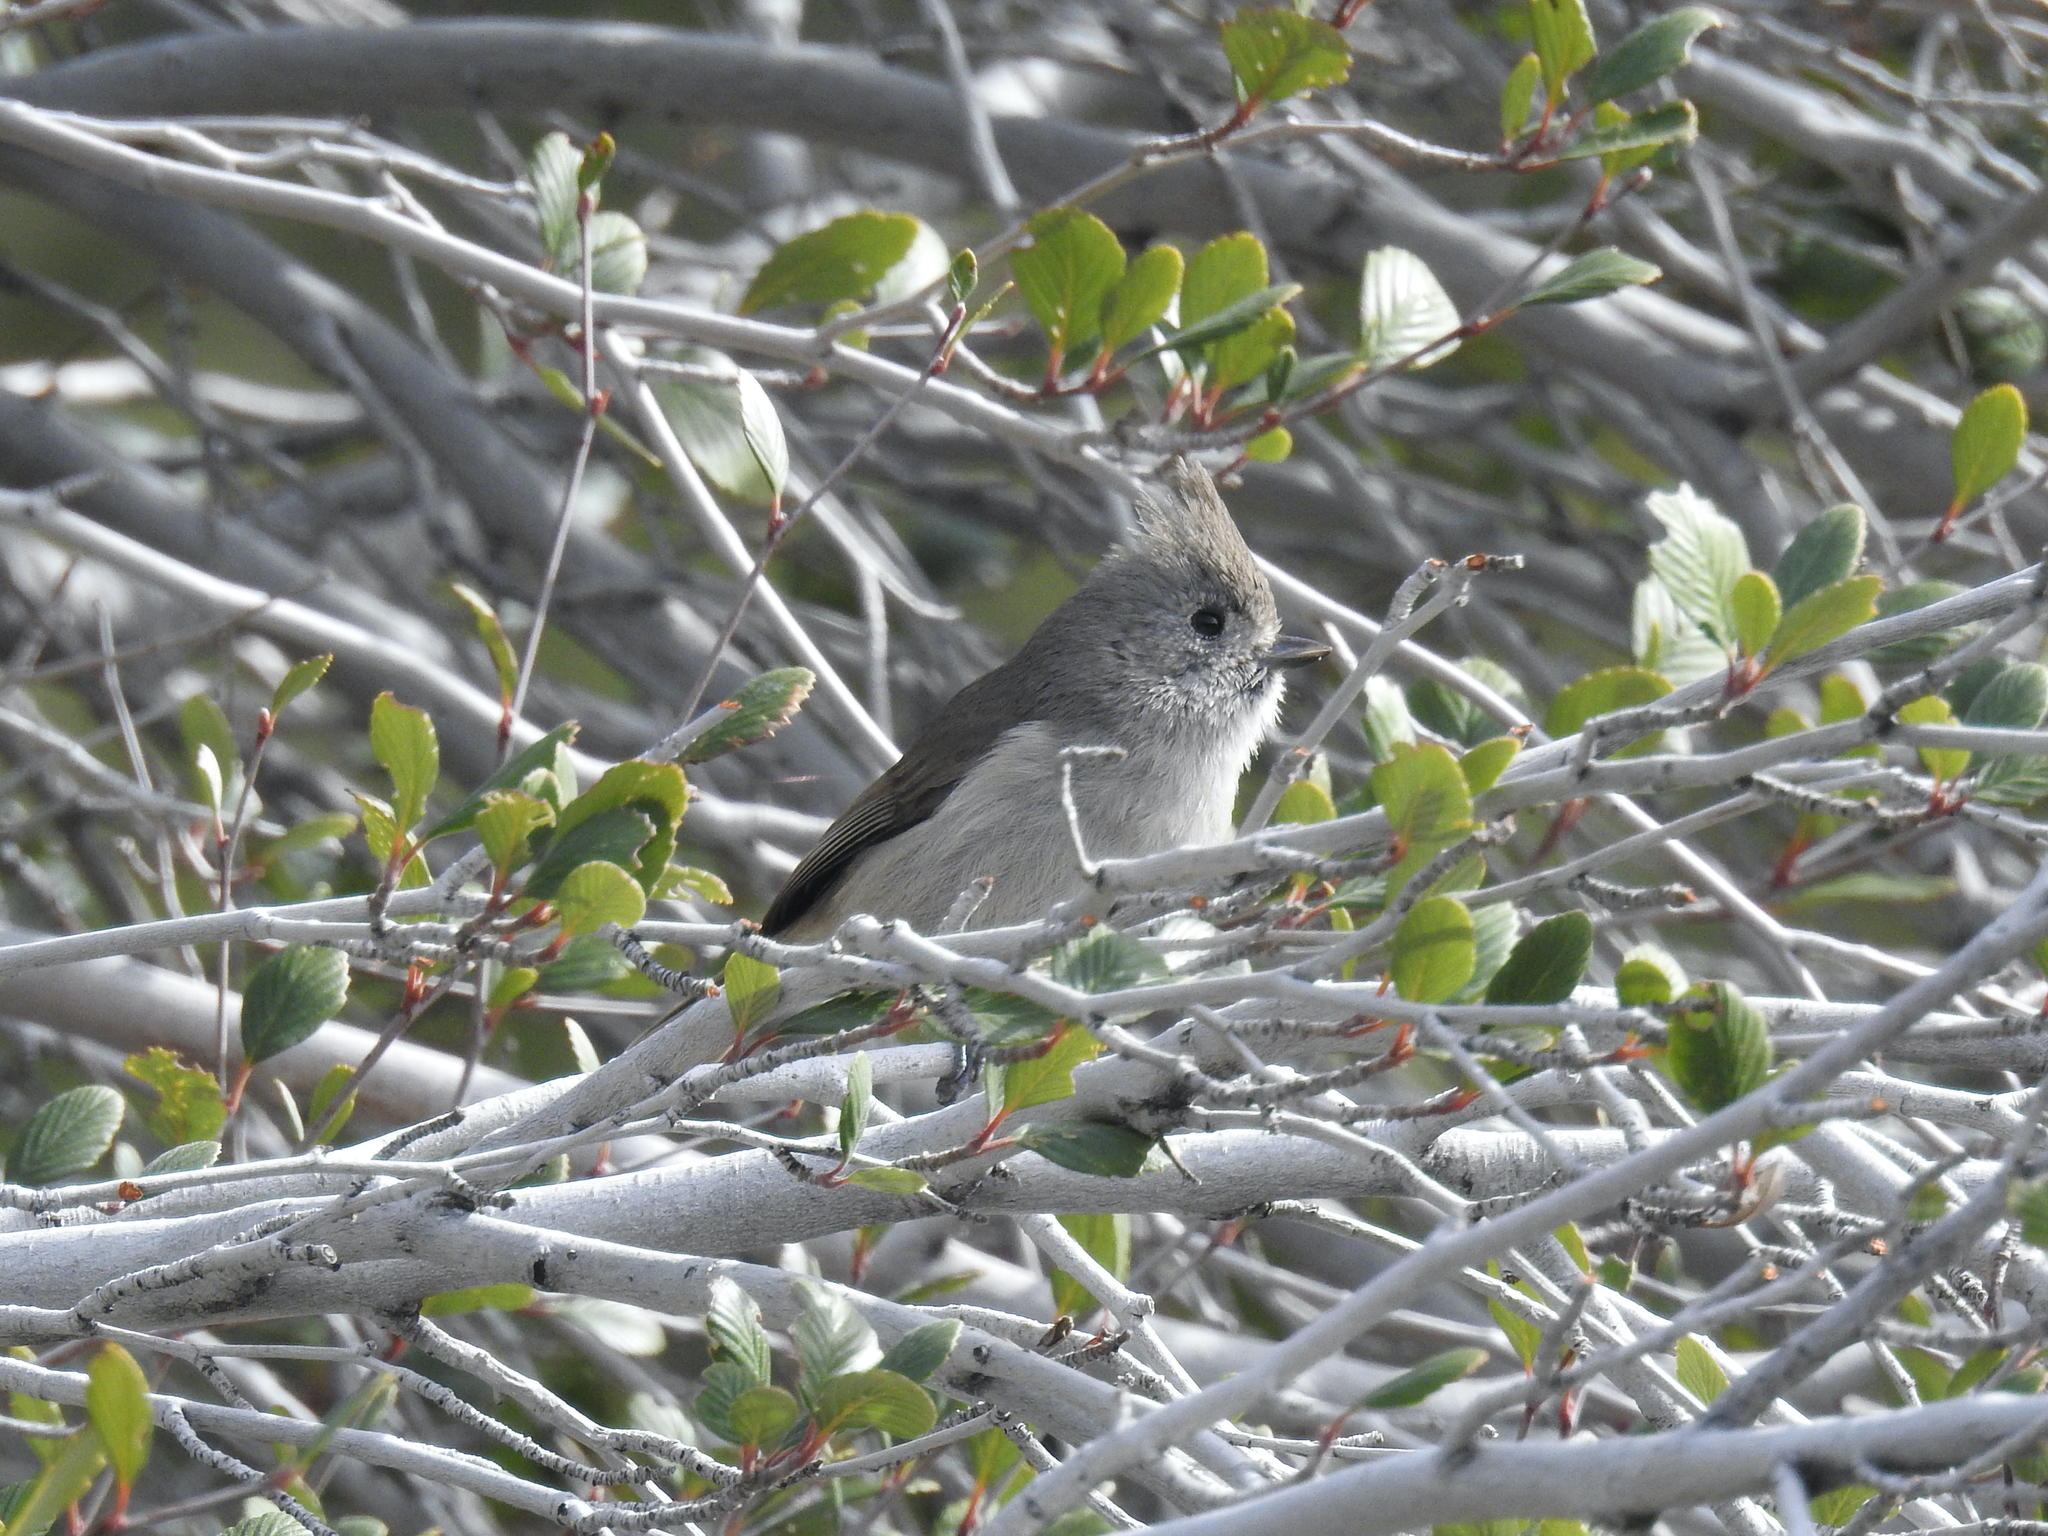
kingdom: Animalia
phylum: Chordata
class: Aves
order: Passeriformes
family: Paridae
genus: Baeolophus
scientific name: Baeolophus inornatus
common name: Oak titmouse
